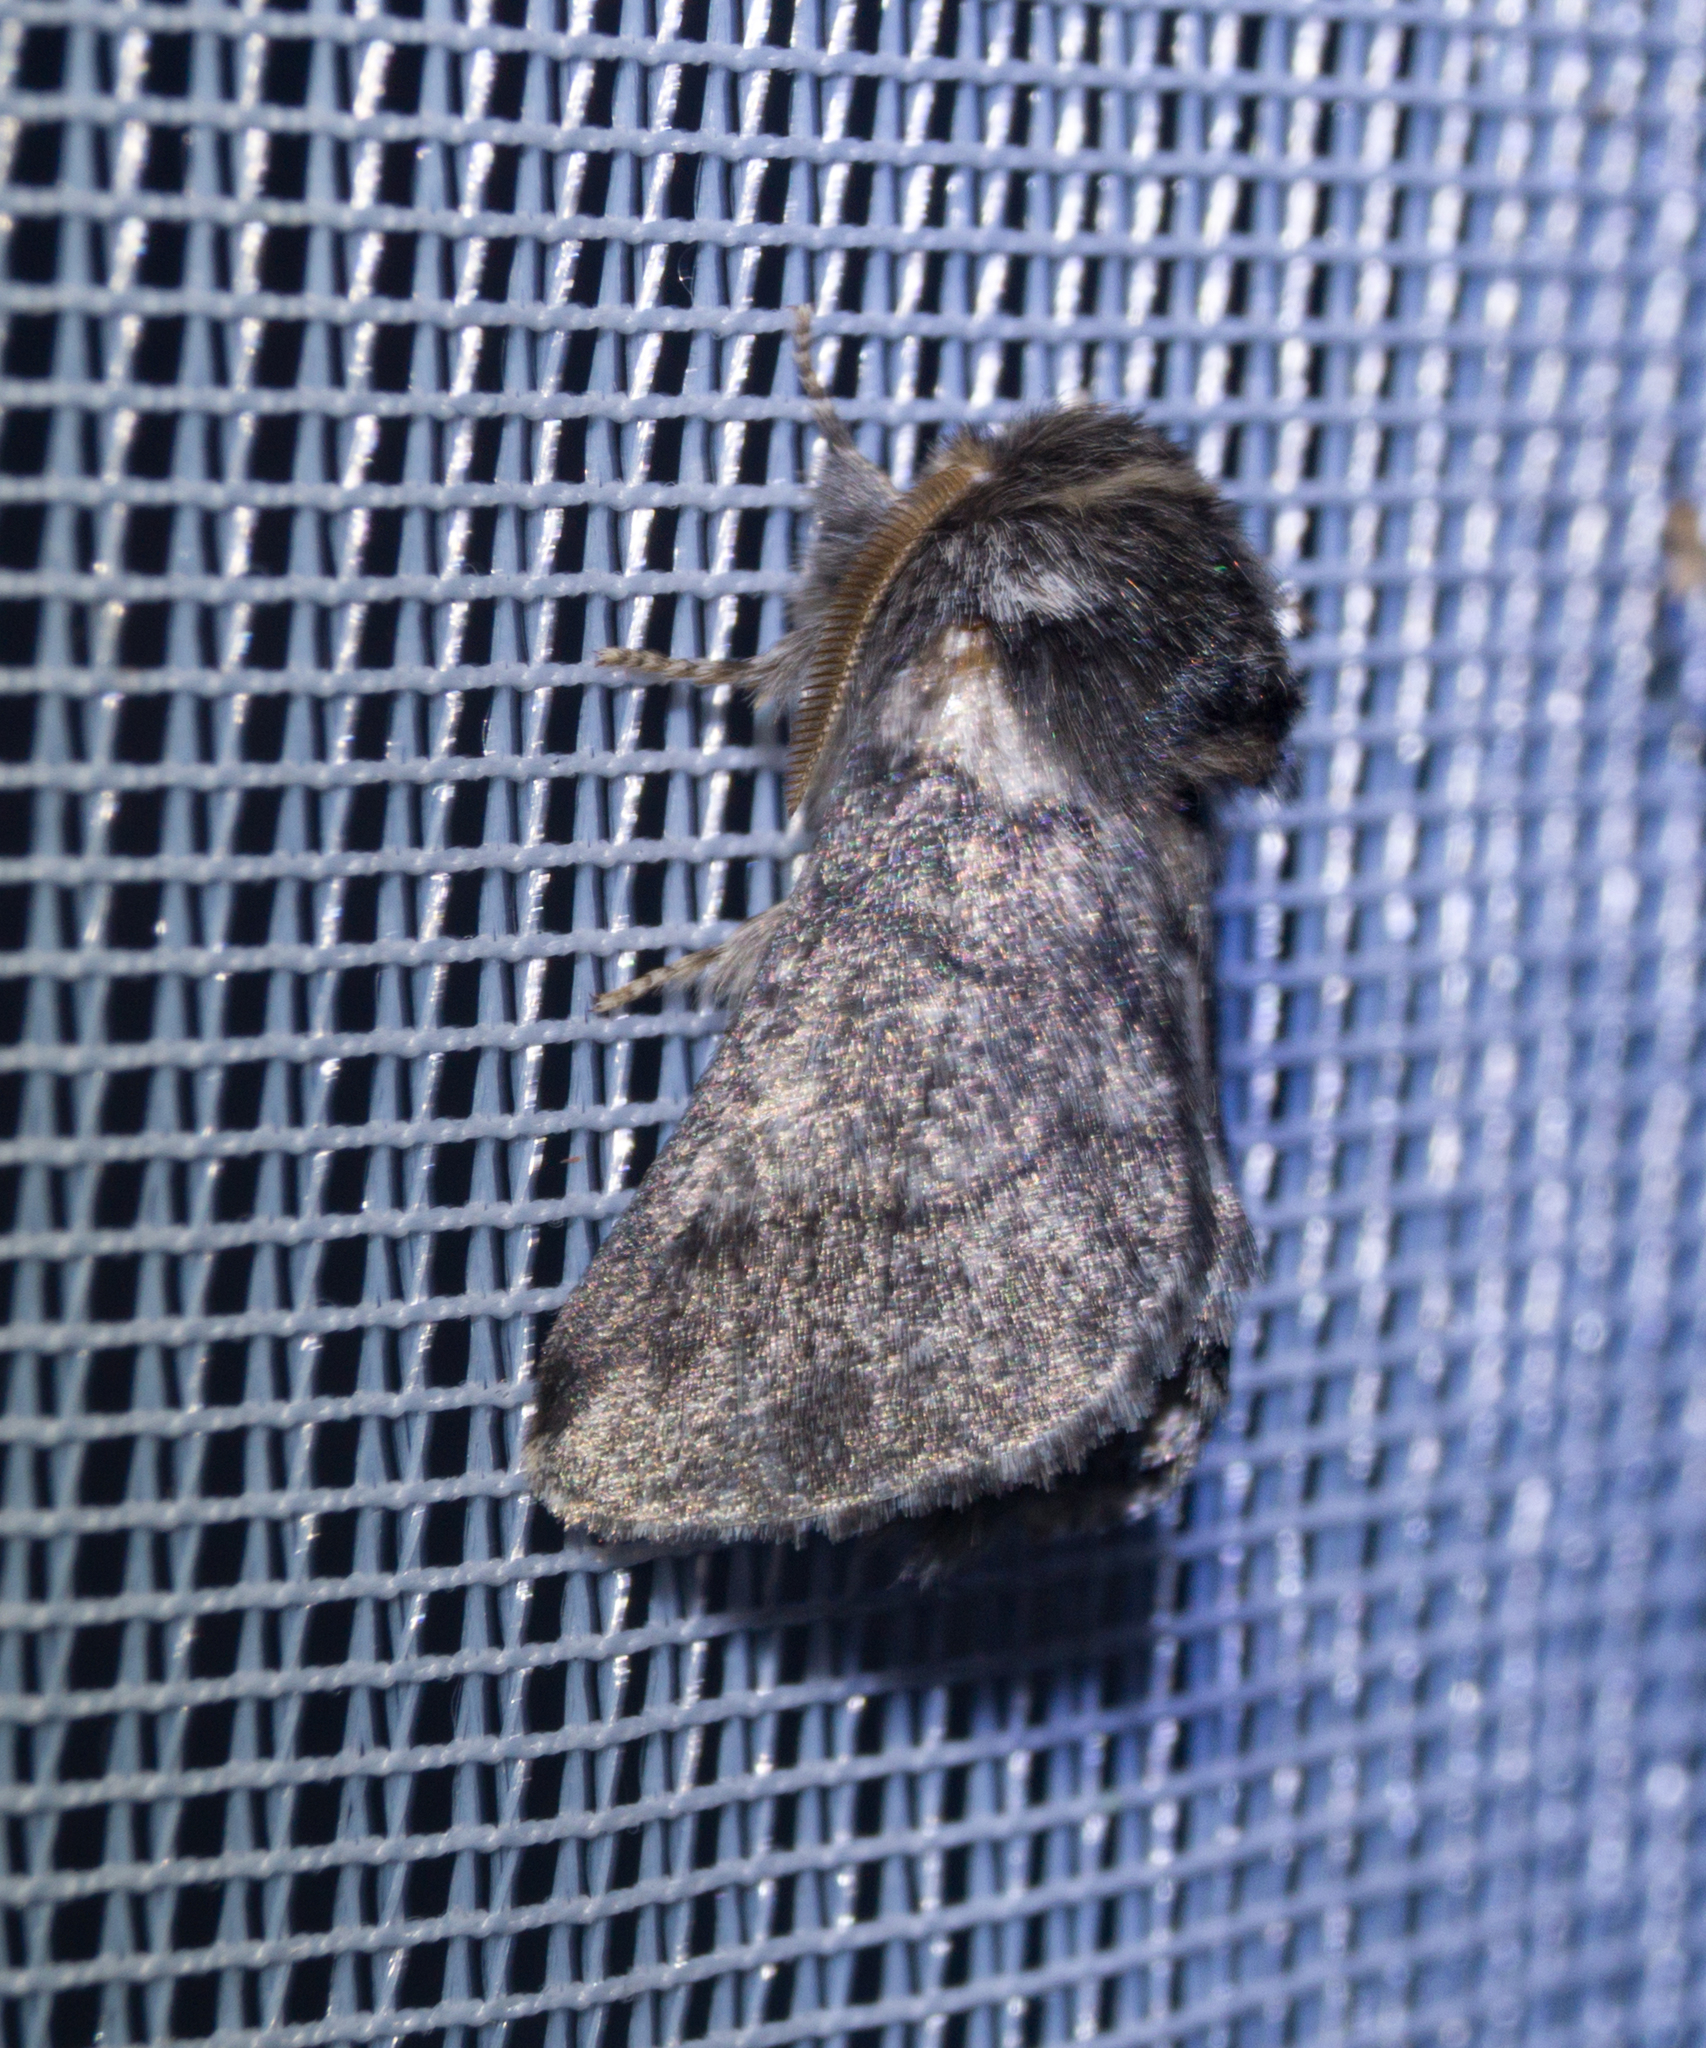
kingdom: Animalia
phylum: Arthropoda
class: Insecta
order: Lepidoptera
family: Notodontidae
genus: Thaumetopoea
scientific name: Thaumetopoea processionea
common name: Oak processionea
